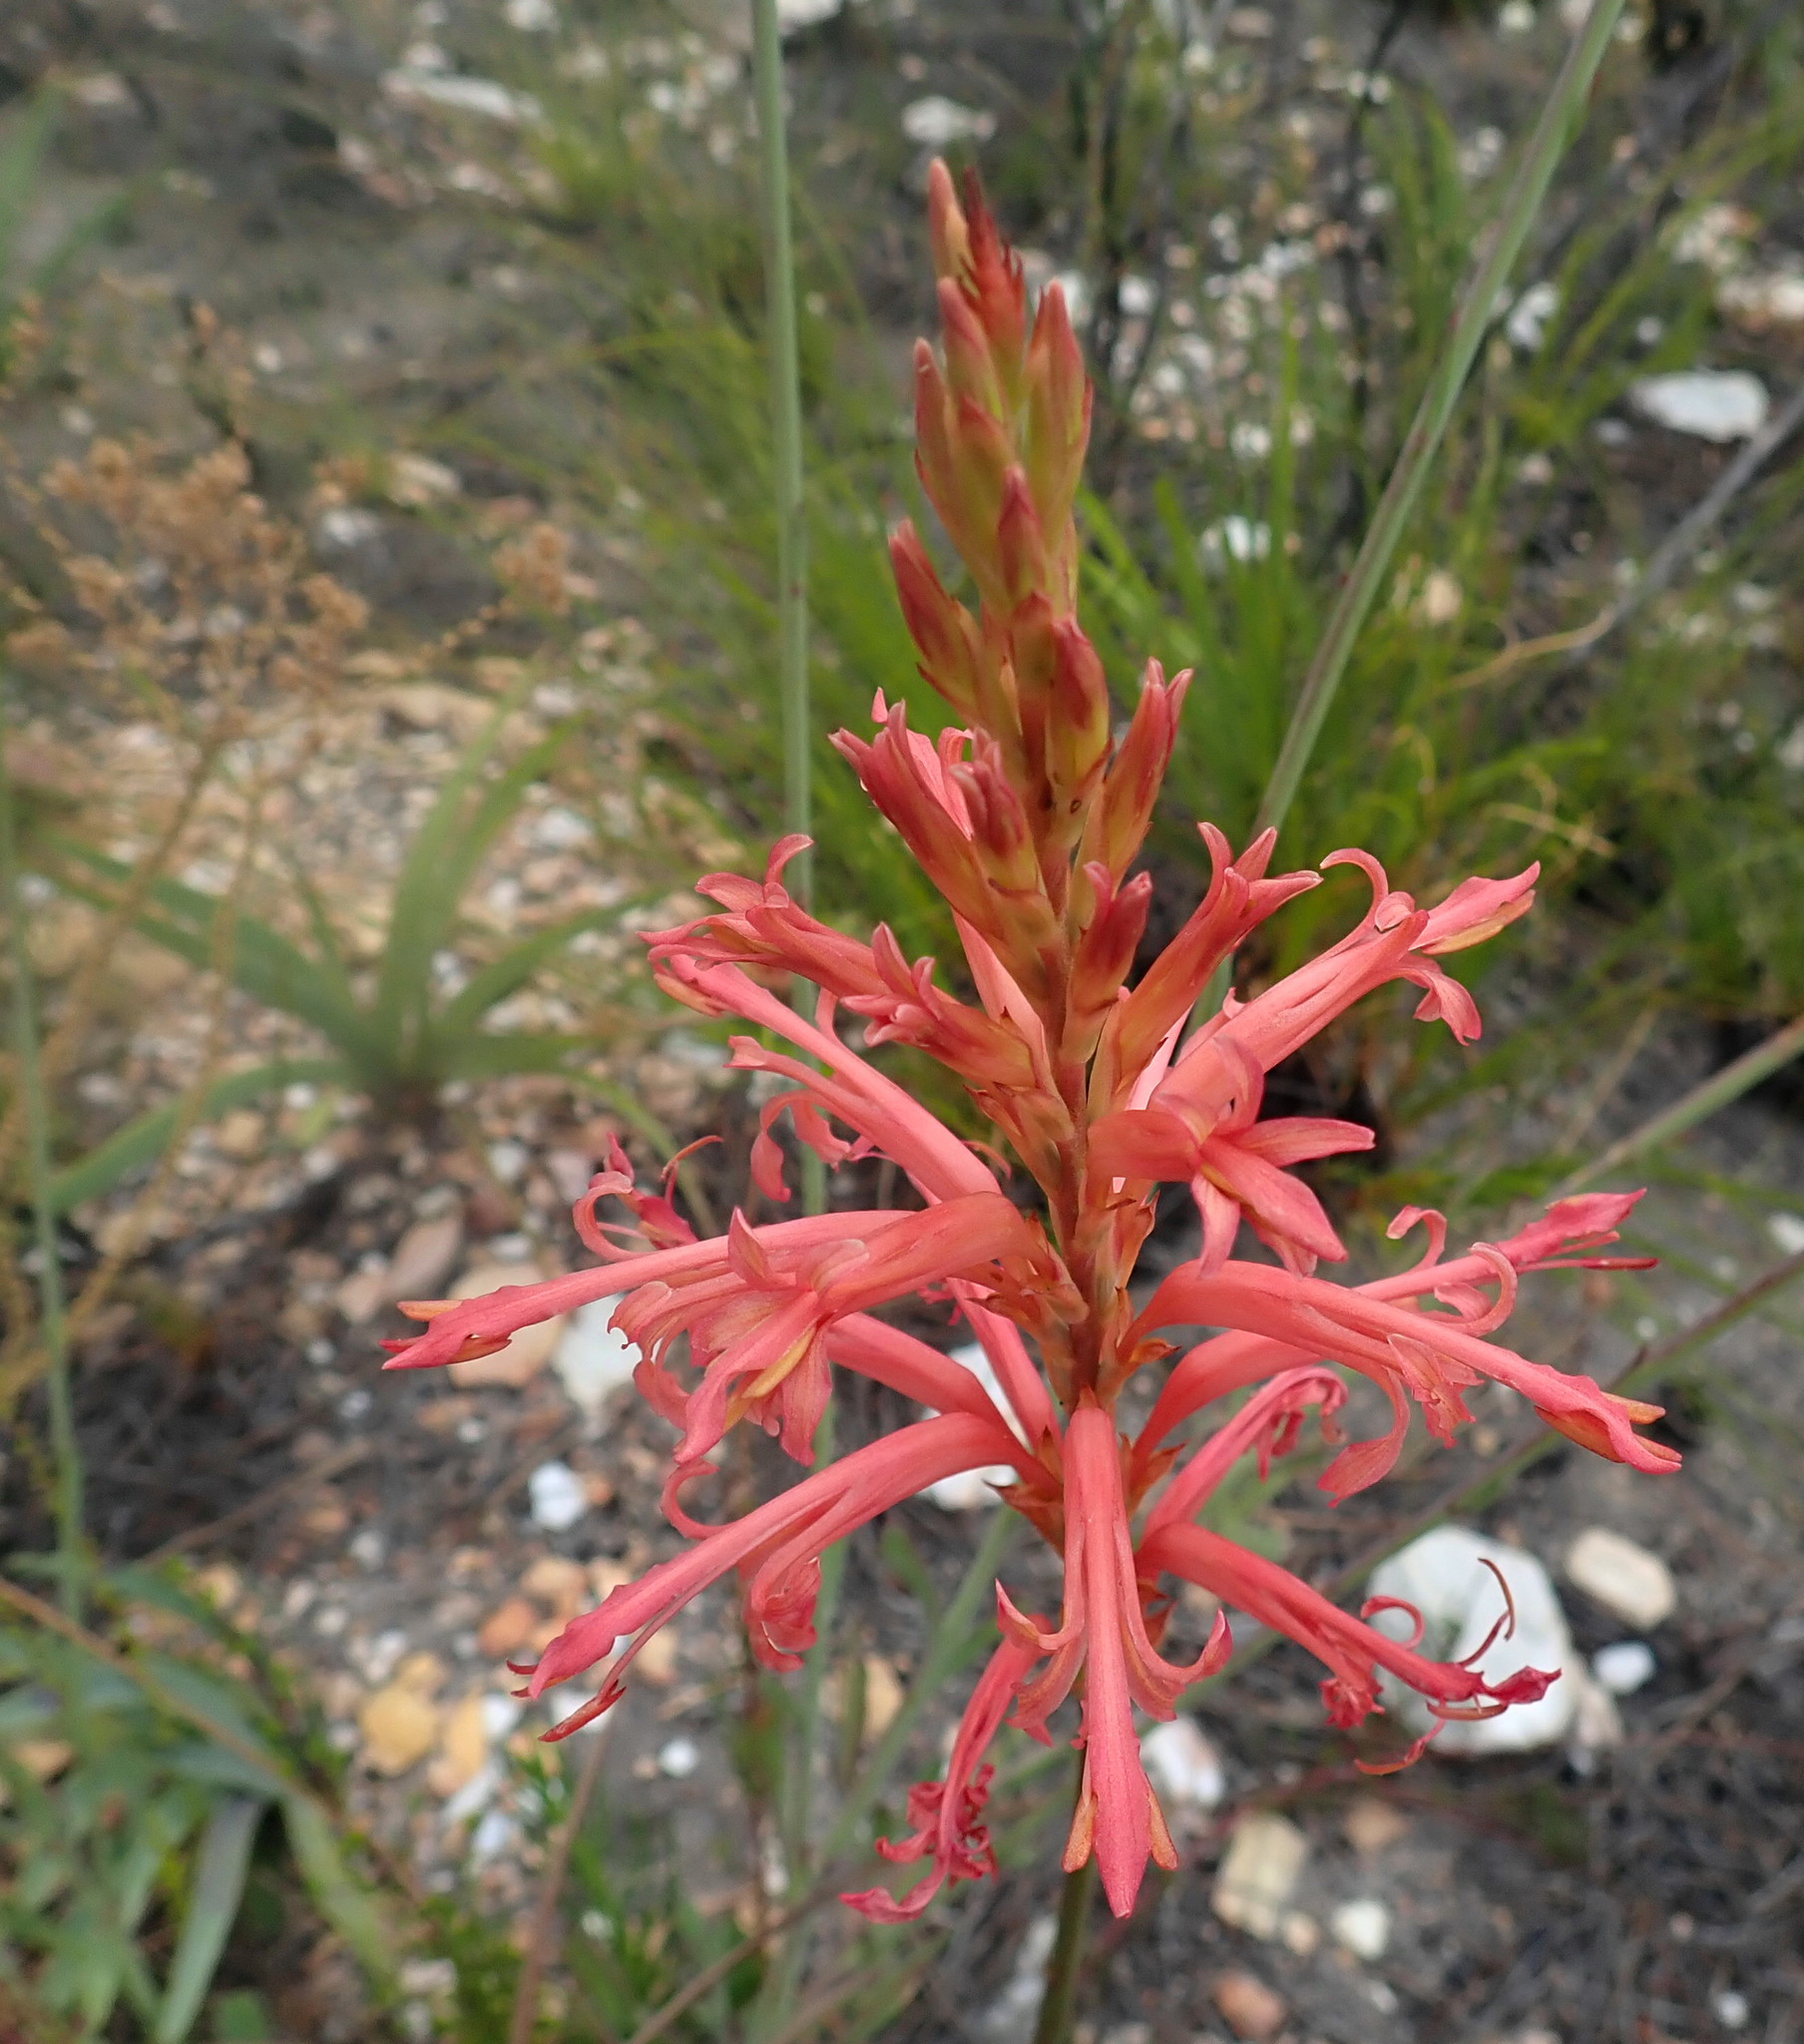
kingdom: Plantae
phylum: Tracheophyta
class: Liliopsida
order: Asparagales
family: Iridaceae
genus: Tritoniopsis
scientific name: Tritoniopsis antholyza
